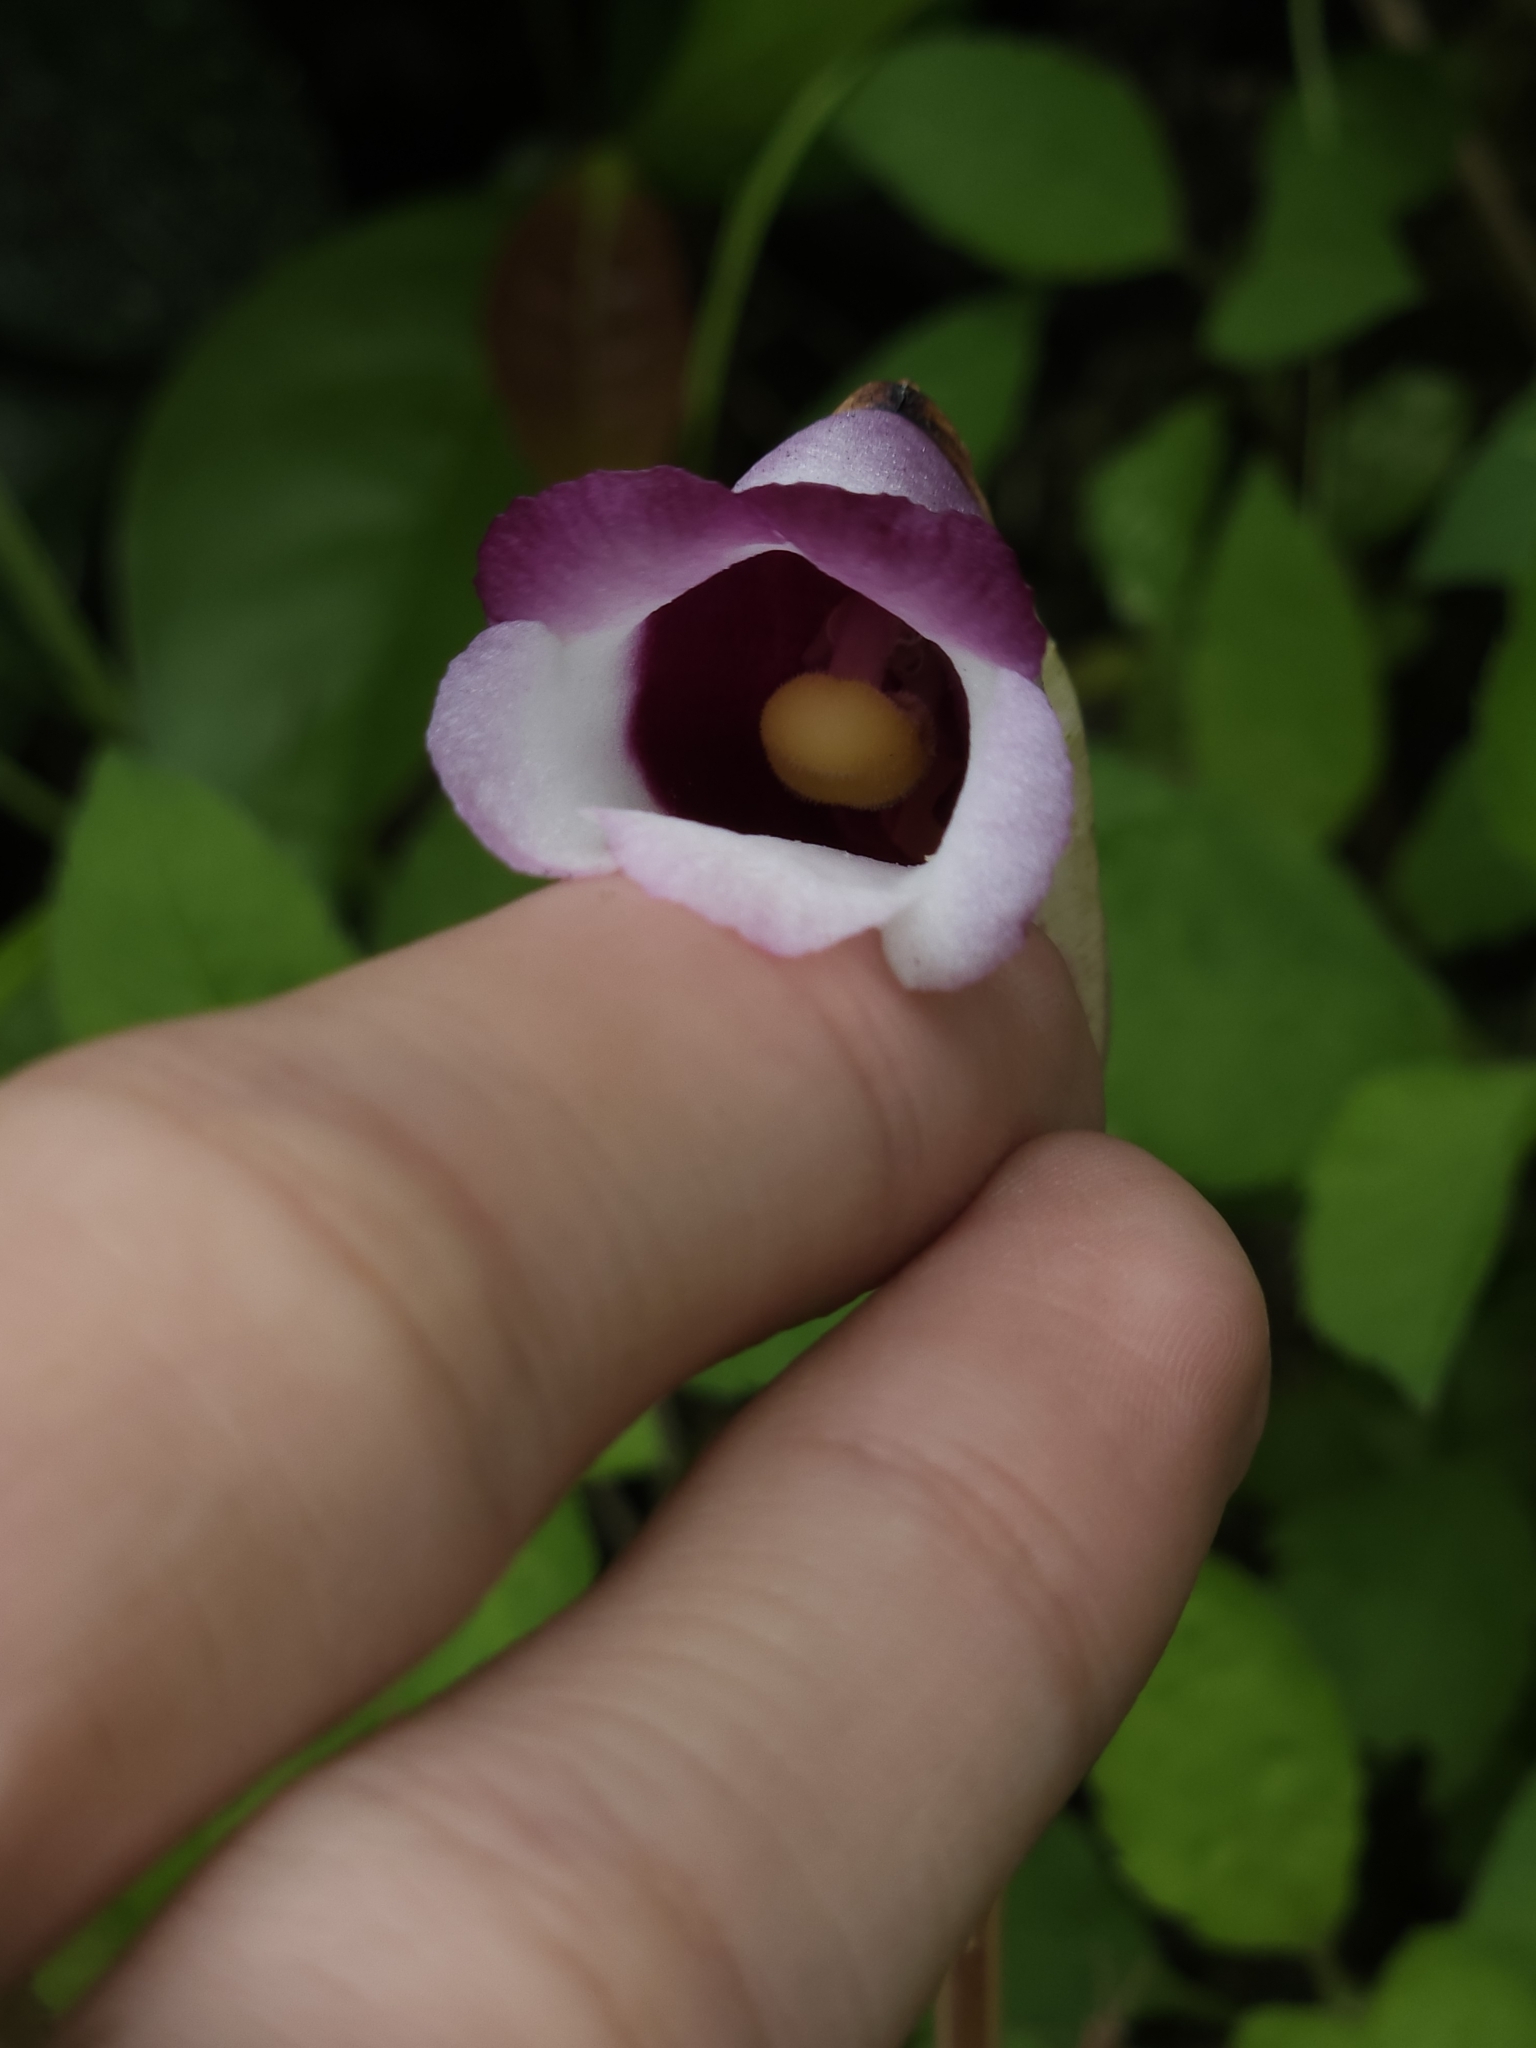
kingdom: Plantae
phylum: Tracheophyta
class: Magnoliopsida
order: Lamiales
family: Orobanchaceae
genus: Aeginetia
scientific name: Aeginetia indica
